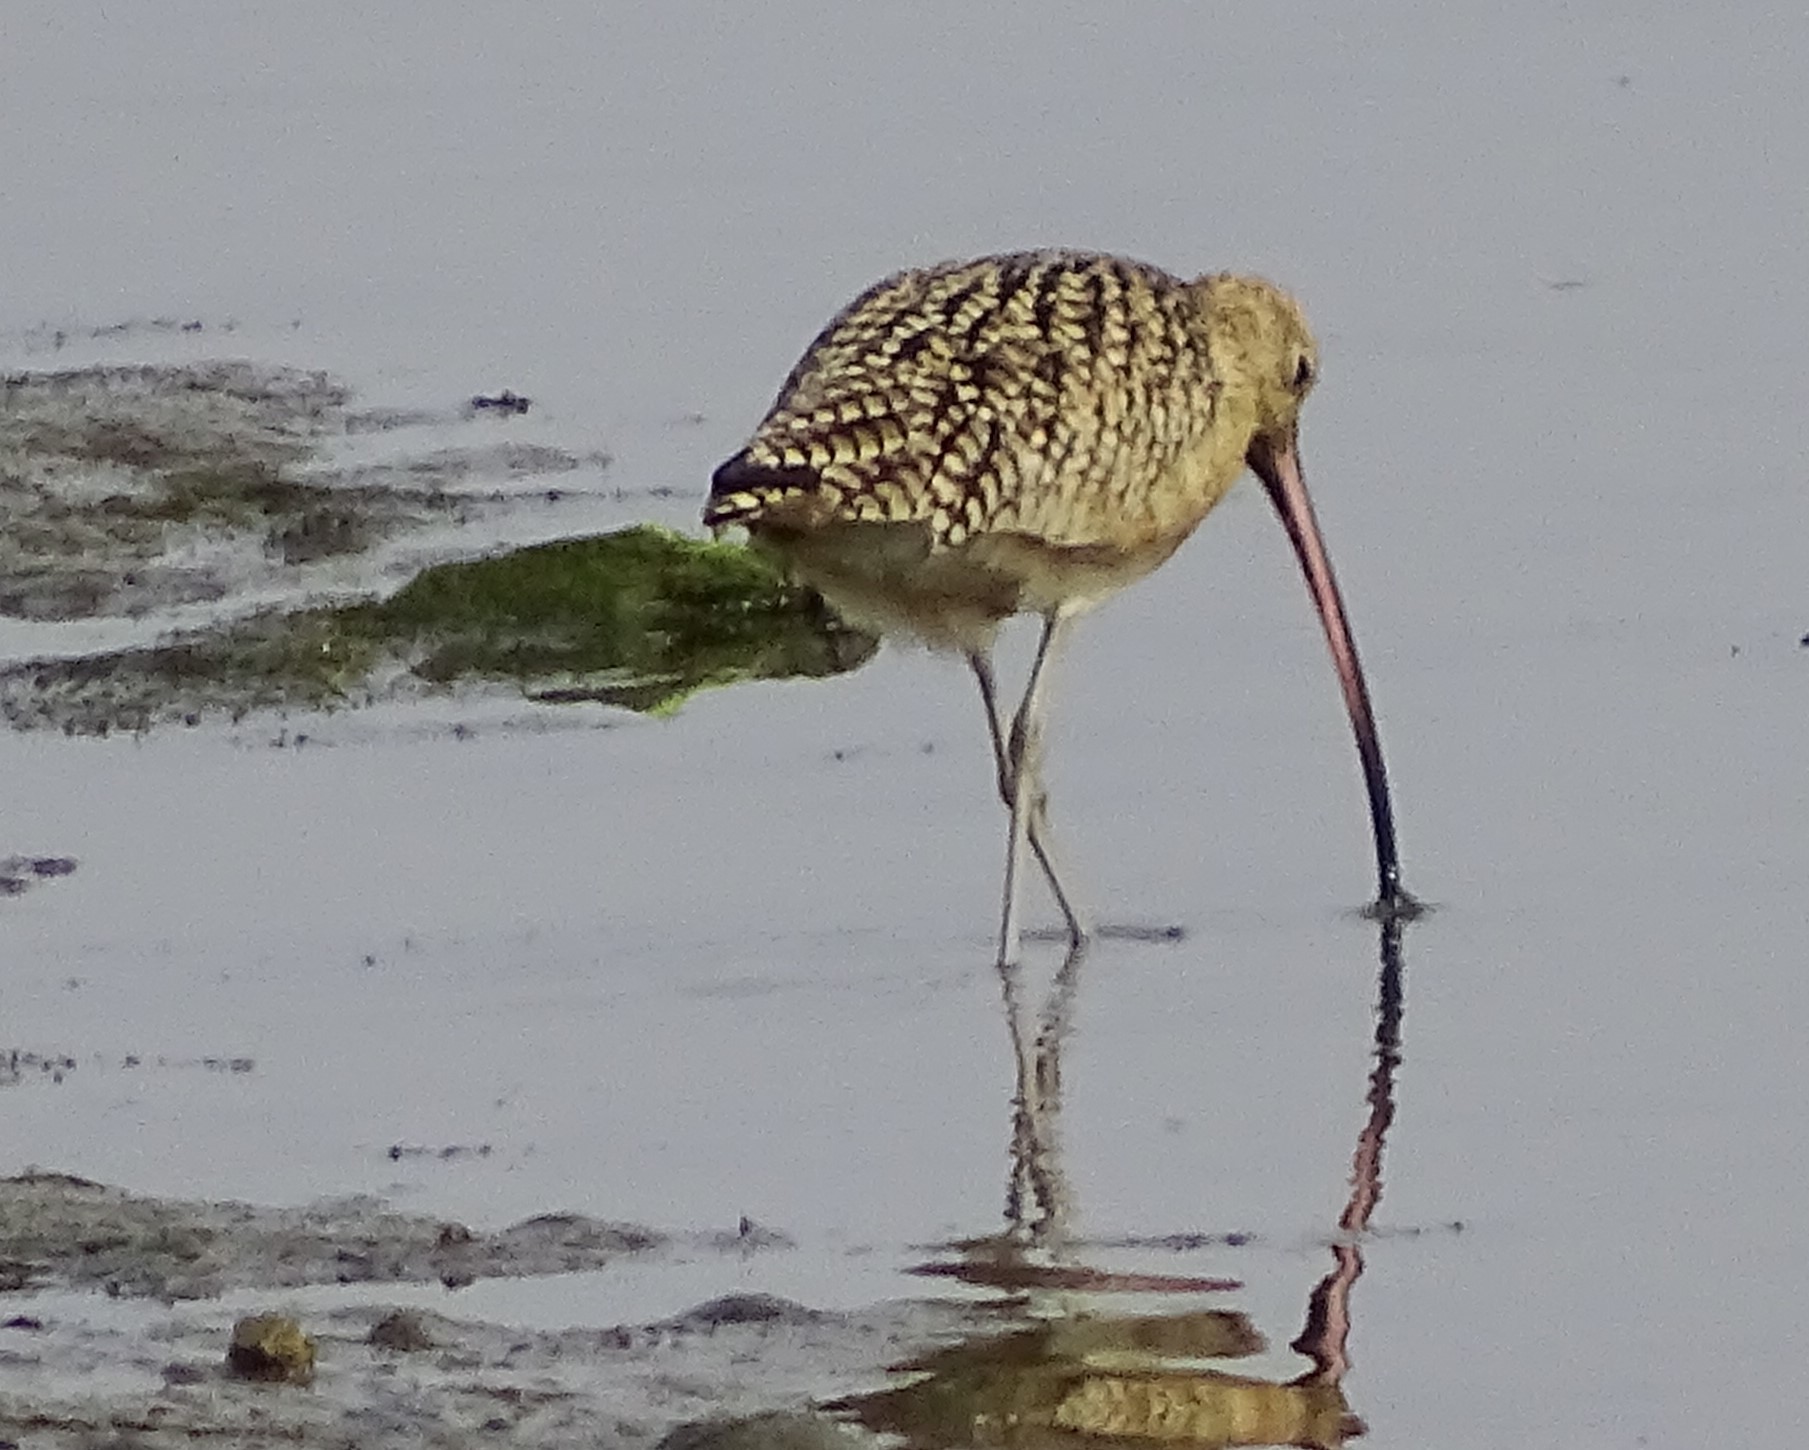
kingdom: Animalia
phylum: Chordata
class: Aves
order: Charadriiformes
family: Scolopacidae
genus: Numenius
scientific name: Numenius americanus
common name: Long-billed curlew
